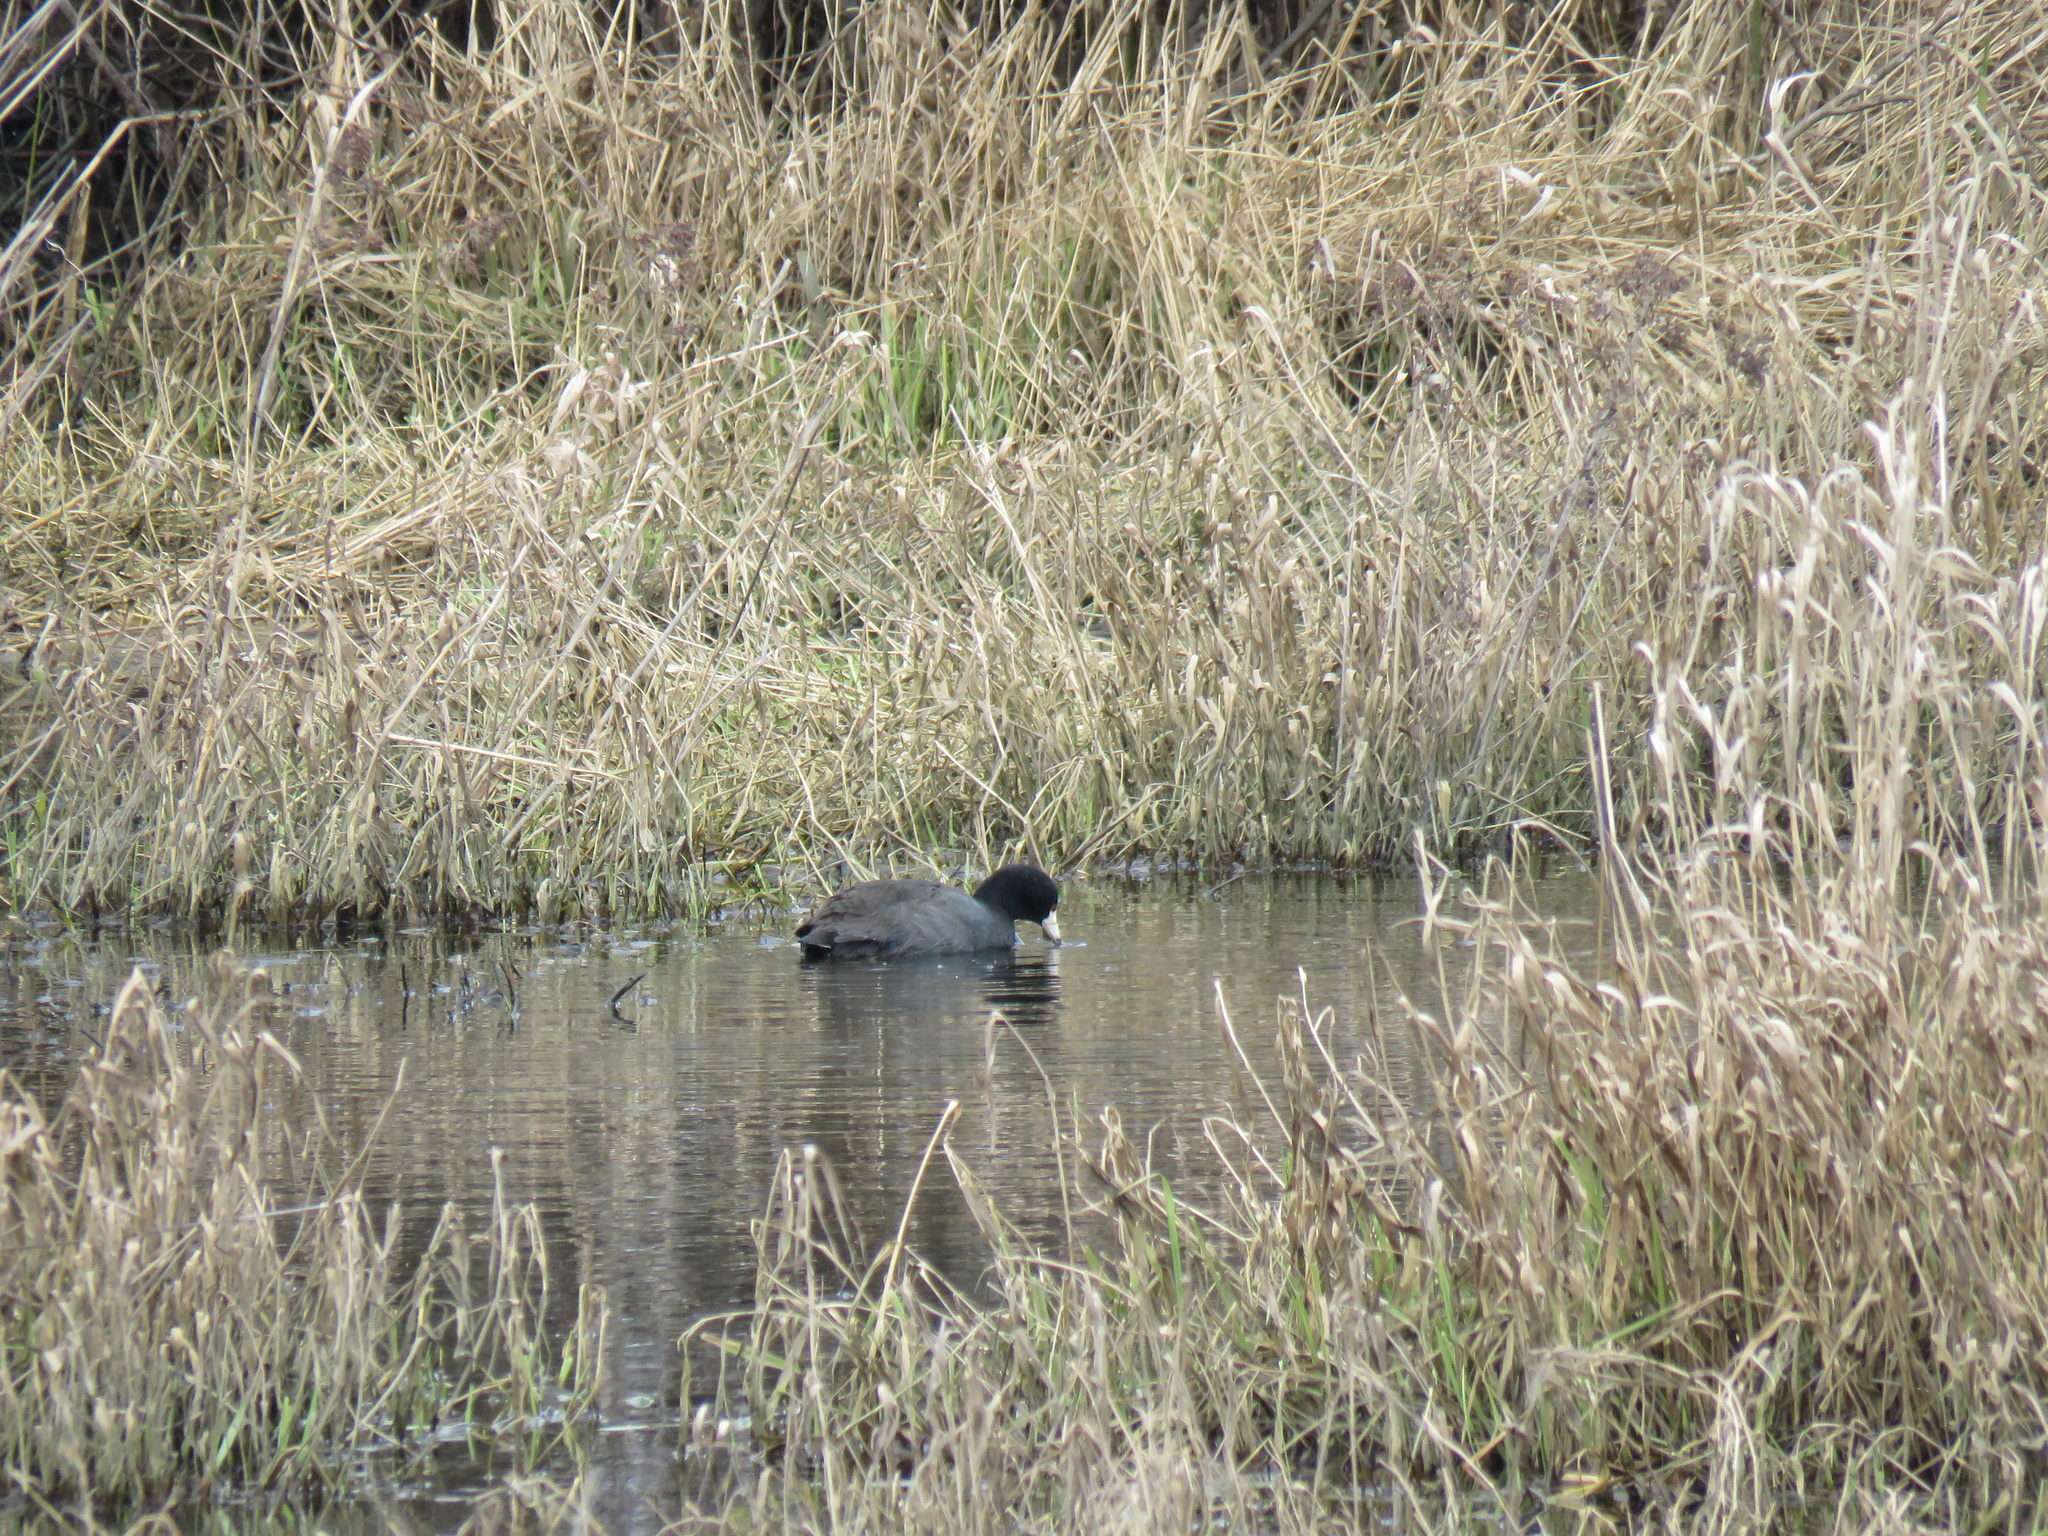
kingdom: Animalia
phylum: Chordata
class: Aves
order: Gruiformes
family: Rallidae
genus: Fulica
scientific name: Fulica americana
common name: American coot
